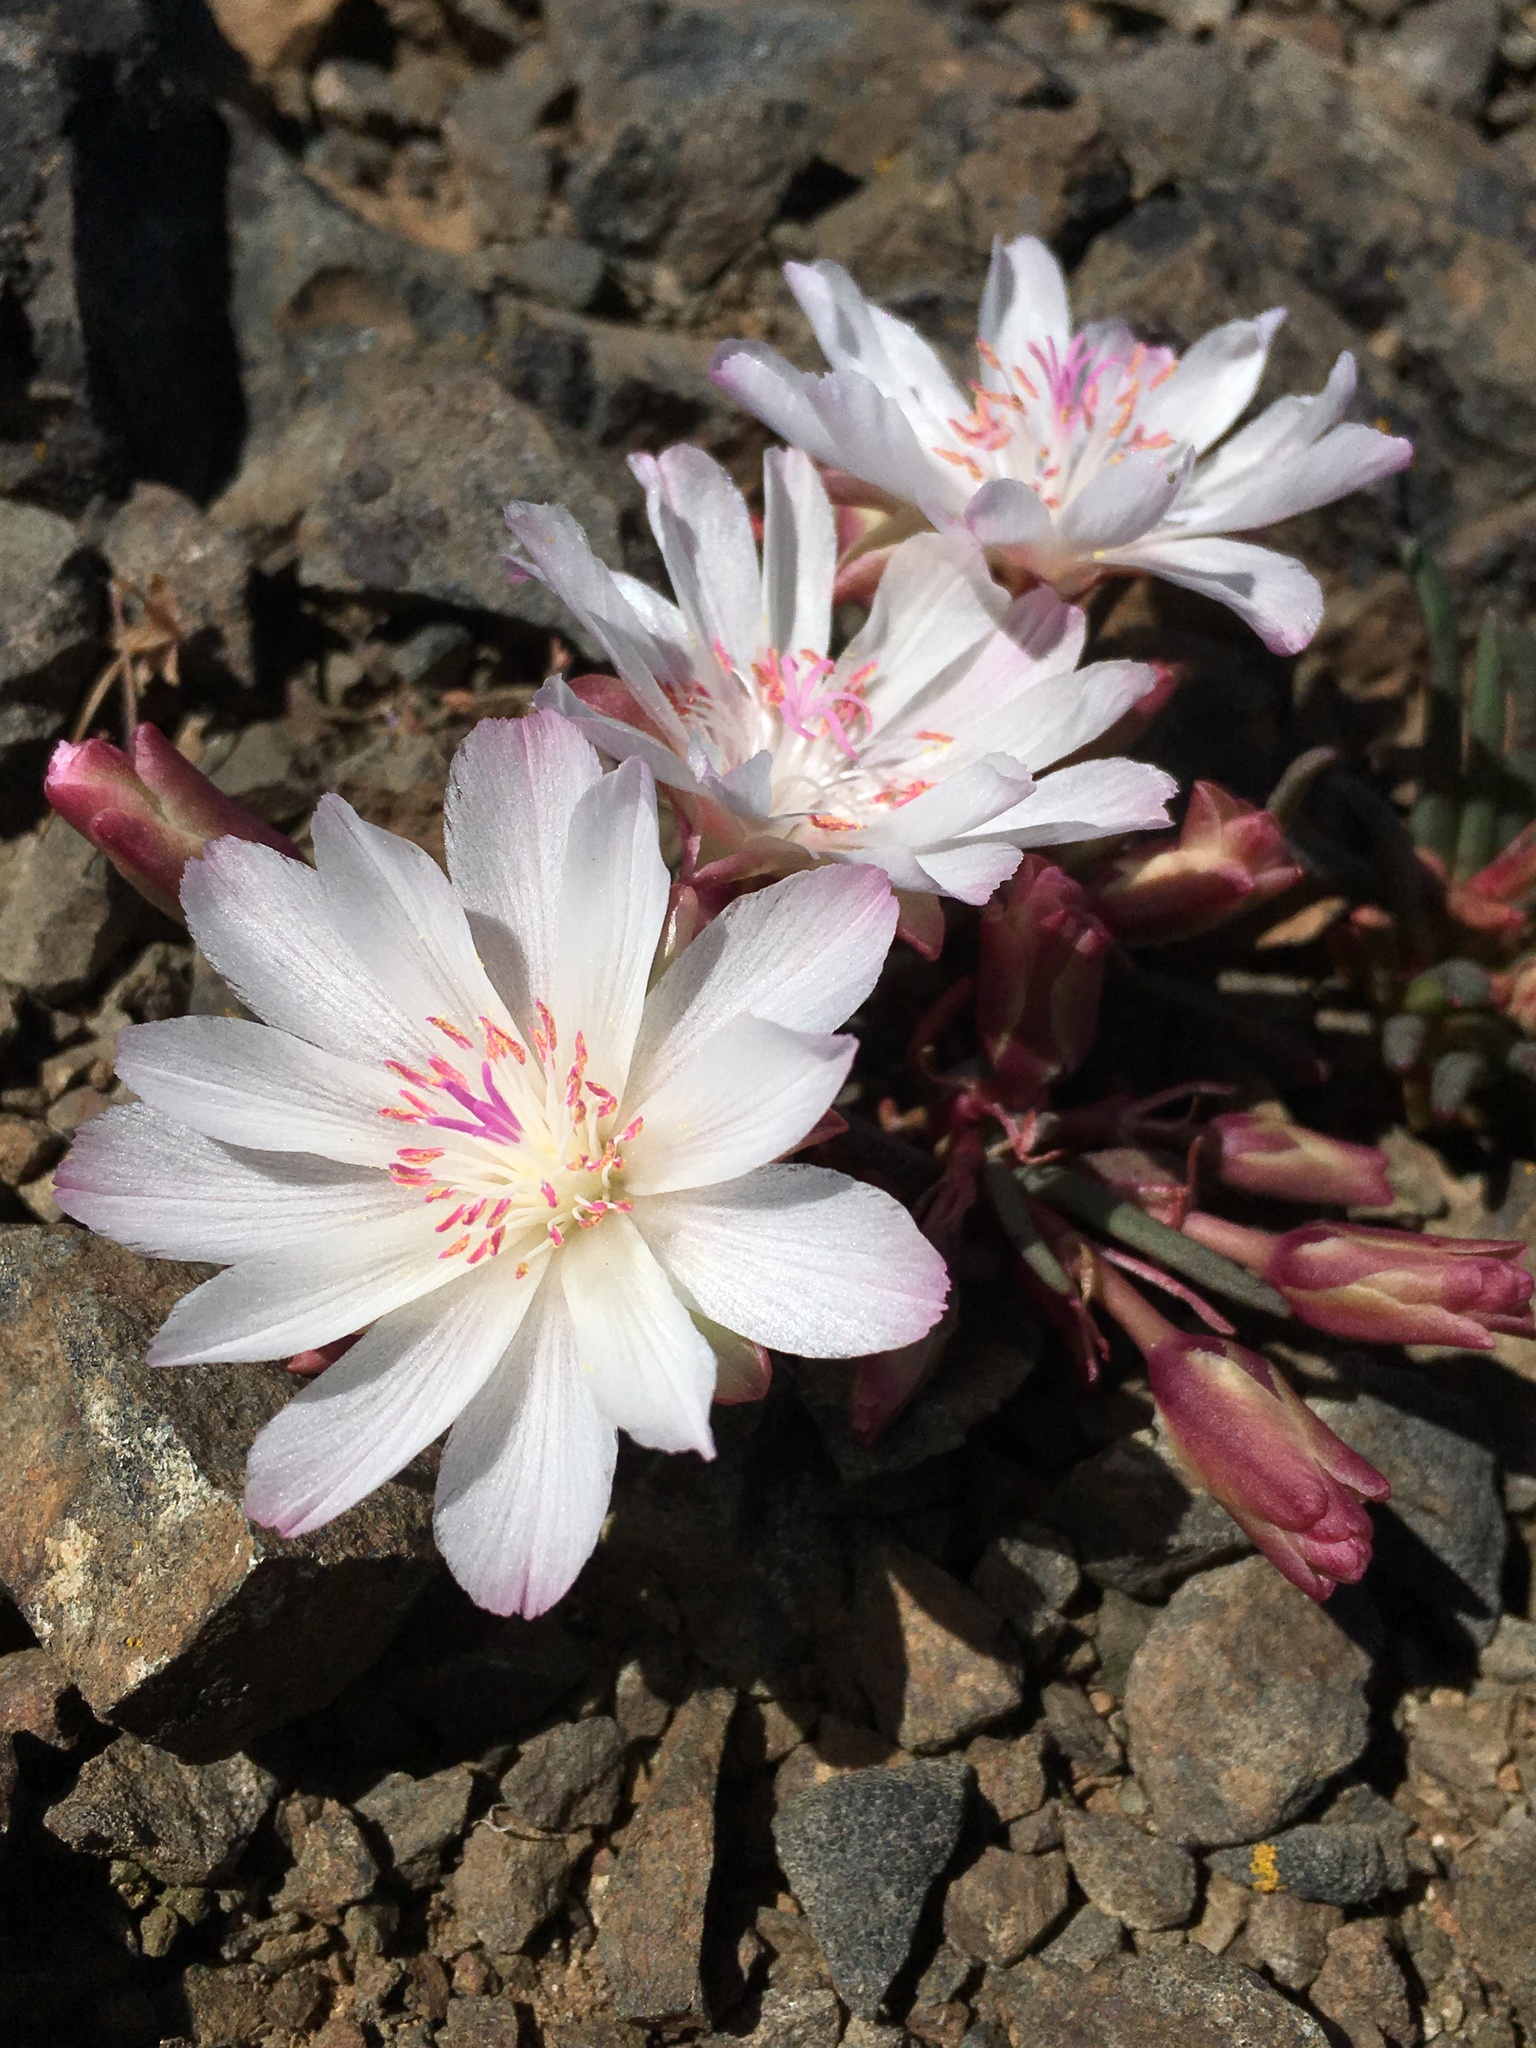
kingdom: Plantae
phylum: Tracheophyta
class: Magnoliopsida
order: Caryophyllales
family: Montiaceae
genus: Lewisia
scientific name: Lewisia rediviva
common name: Bitter-root
